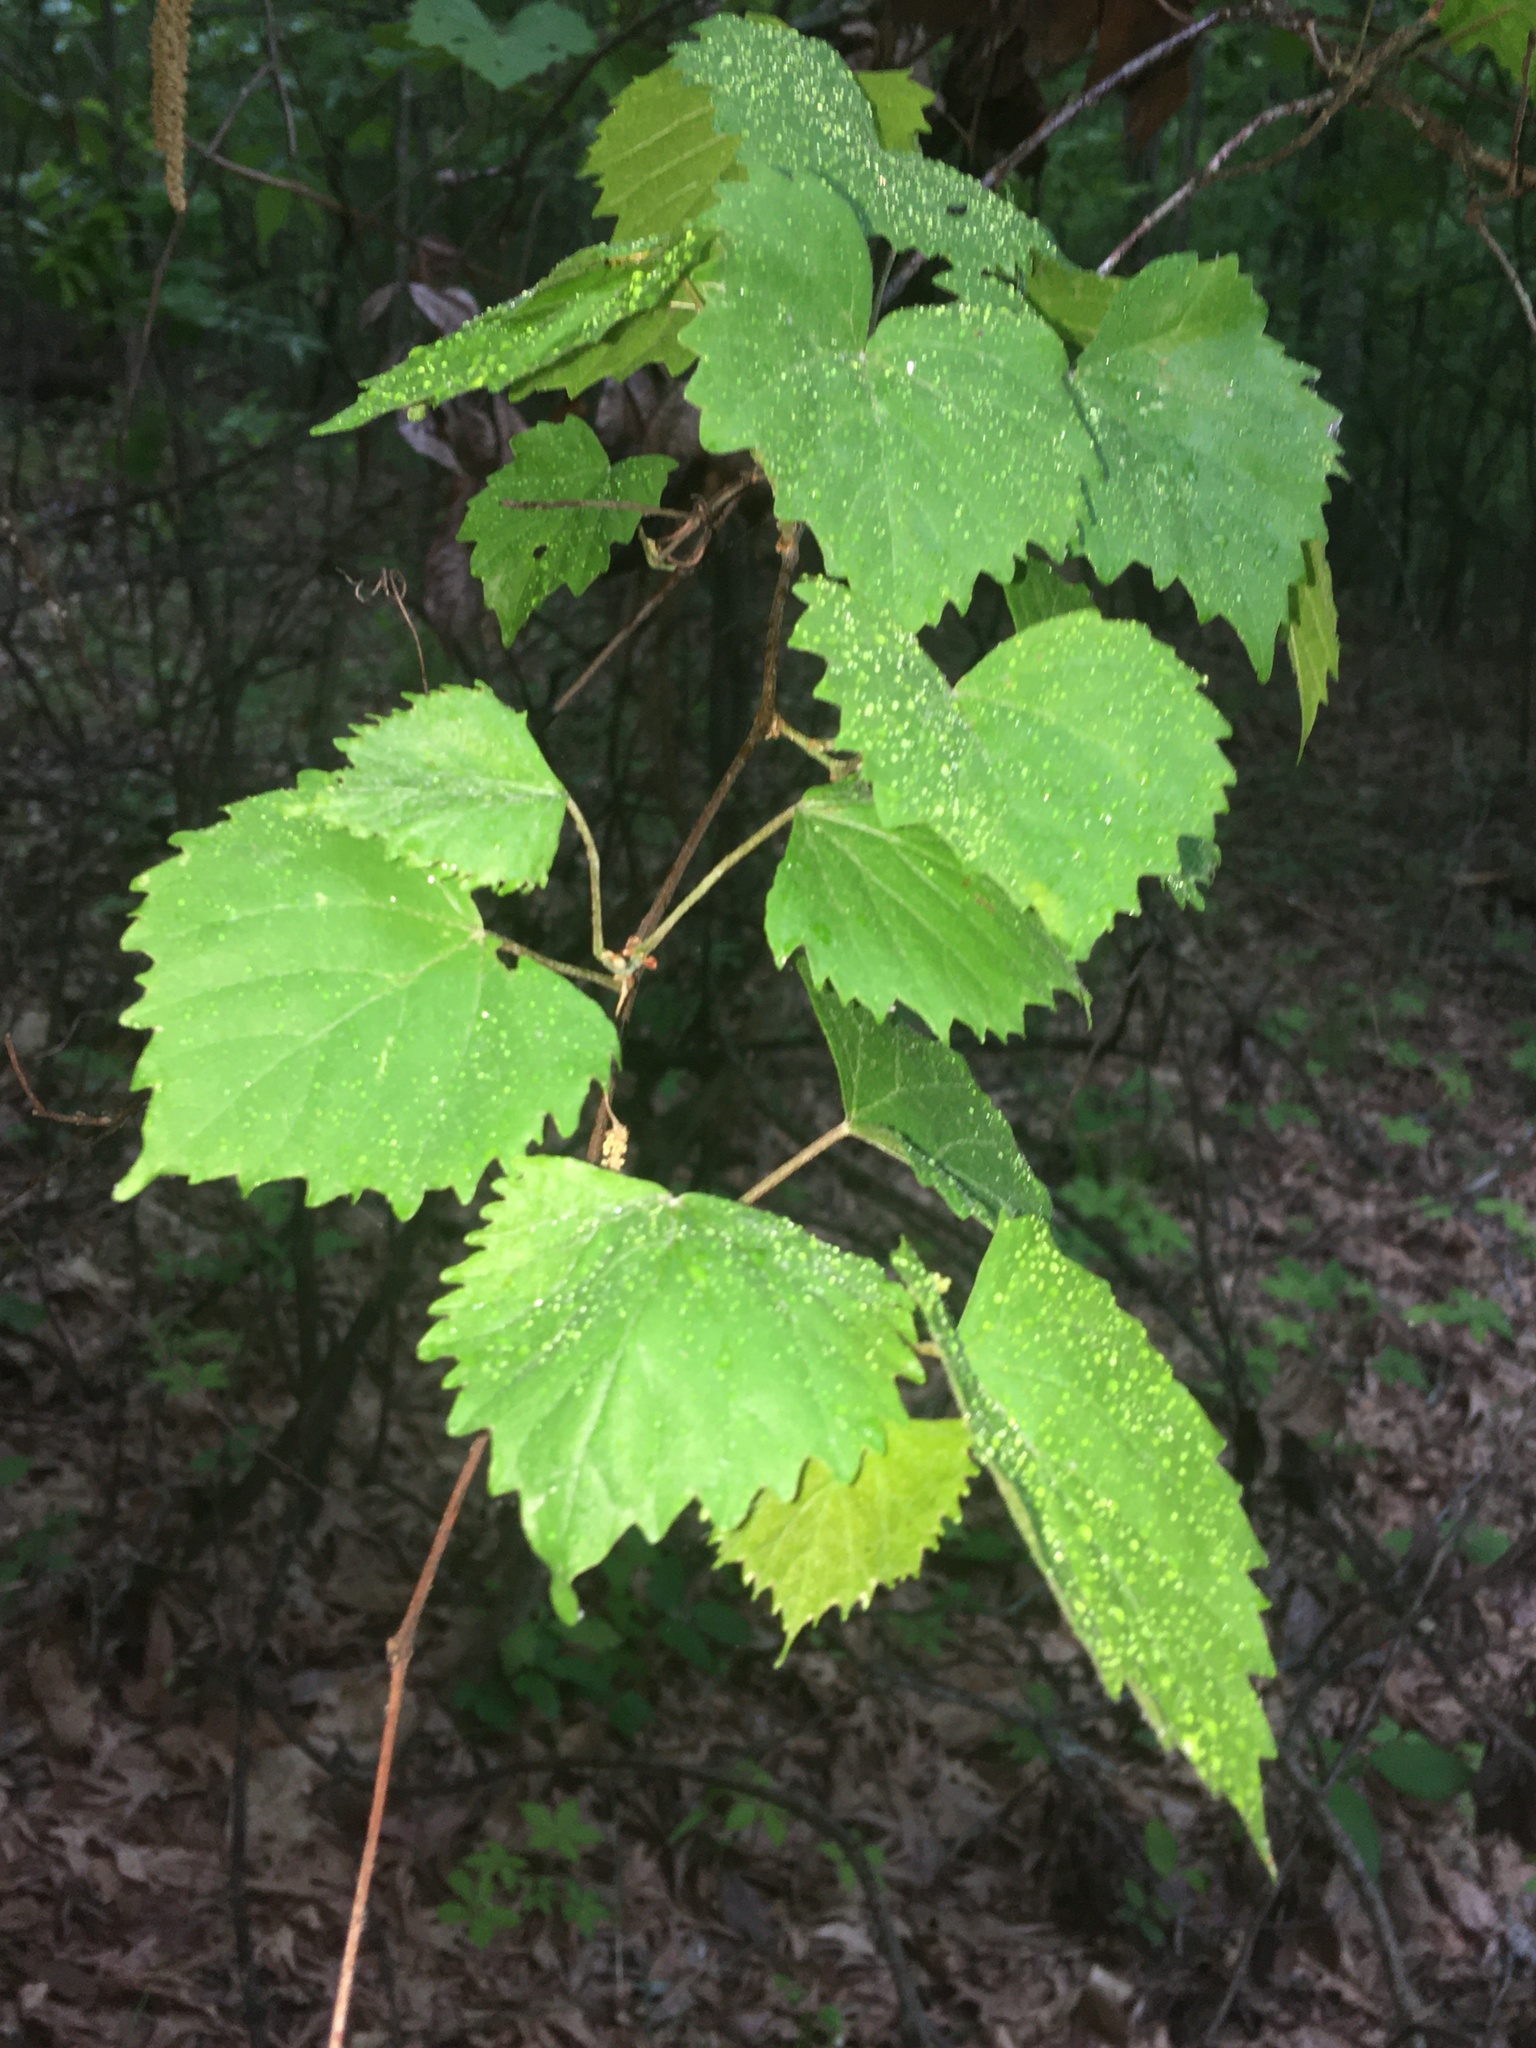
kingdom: Plantae
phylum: Tracheophyta
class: Magnoliopsida
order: Vitales
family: Vitaceae
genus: Vitis
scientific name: Vitis rotundifolia
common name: Muscadine grape
